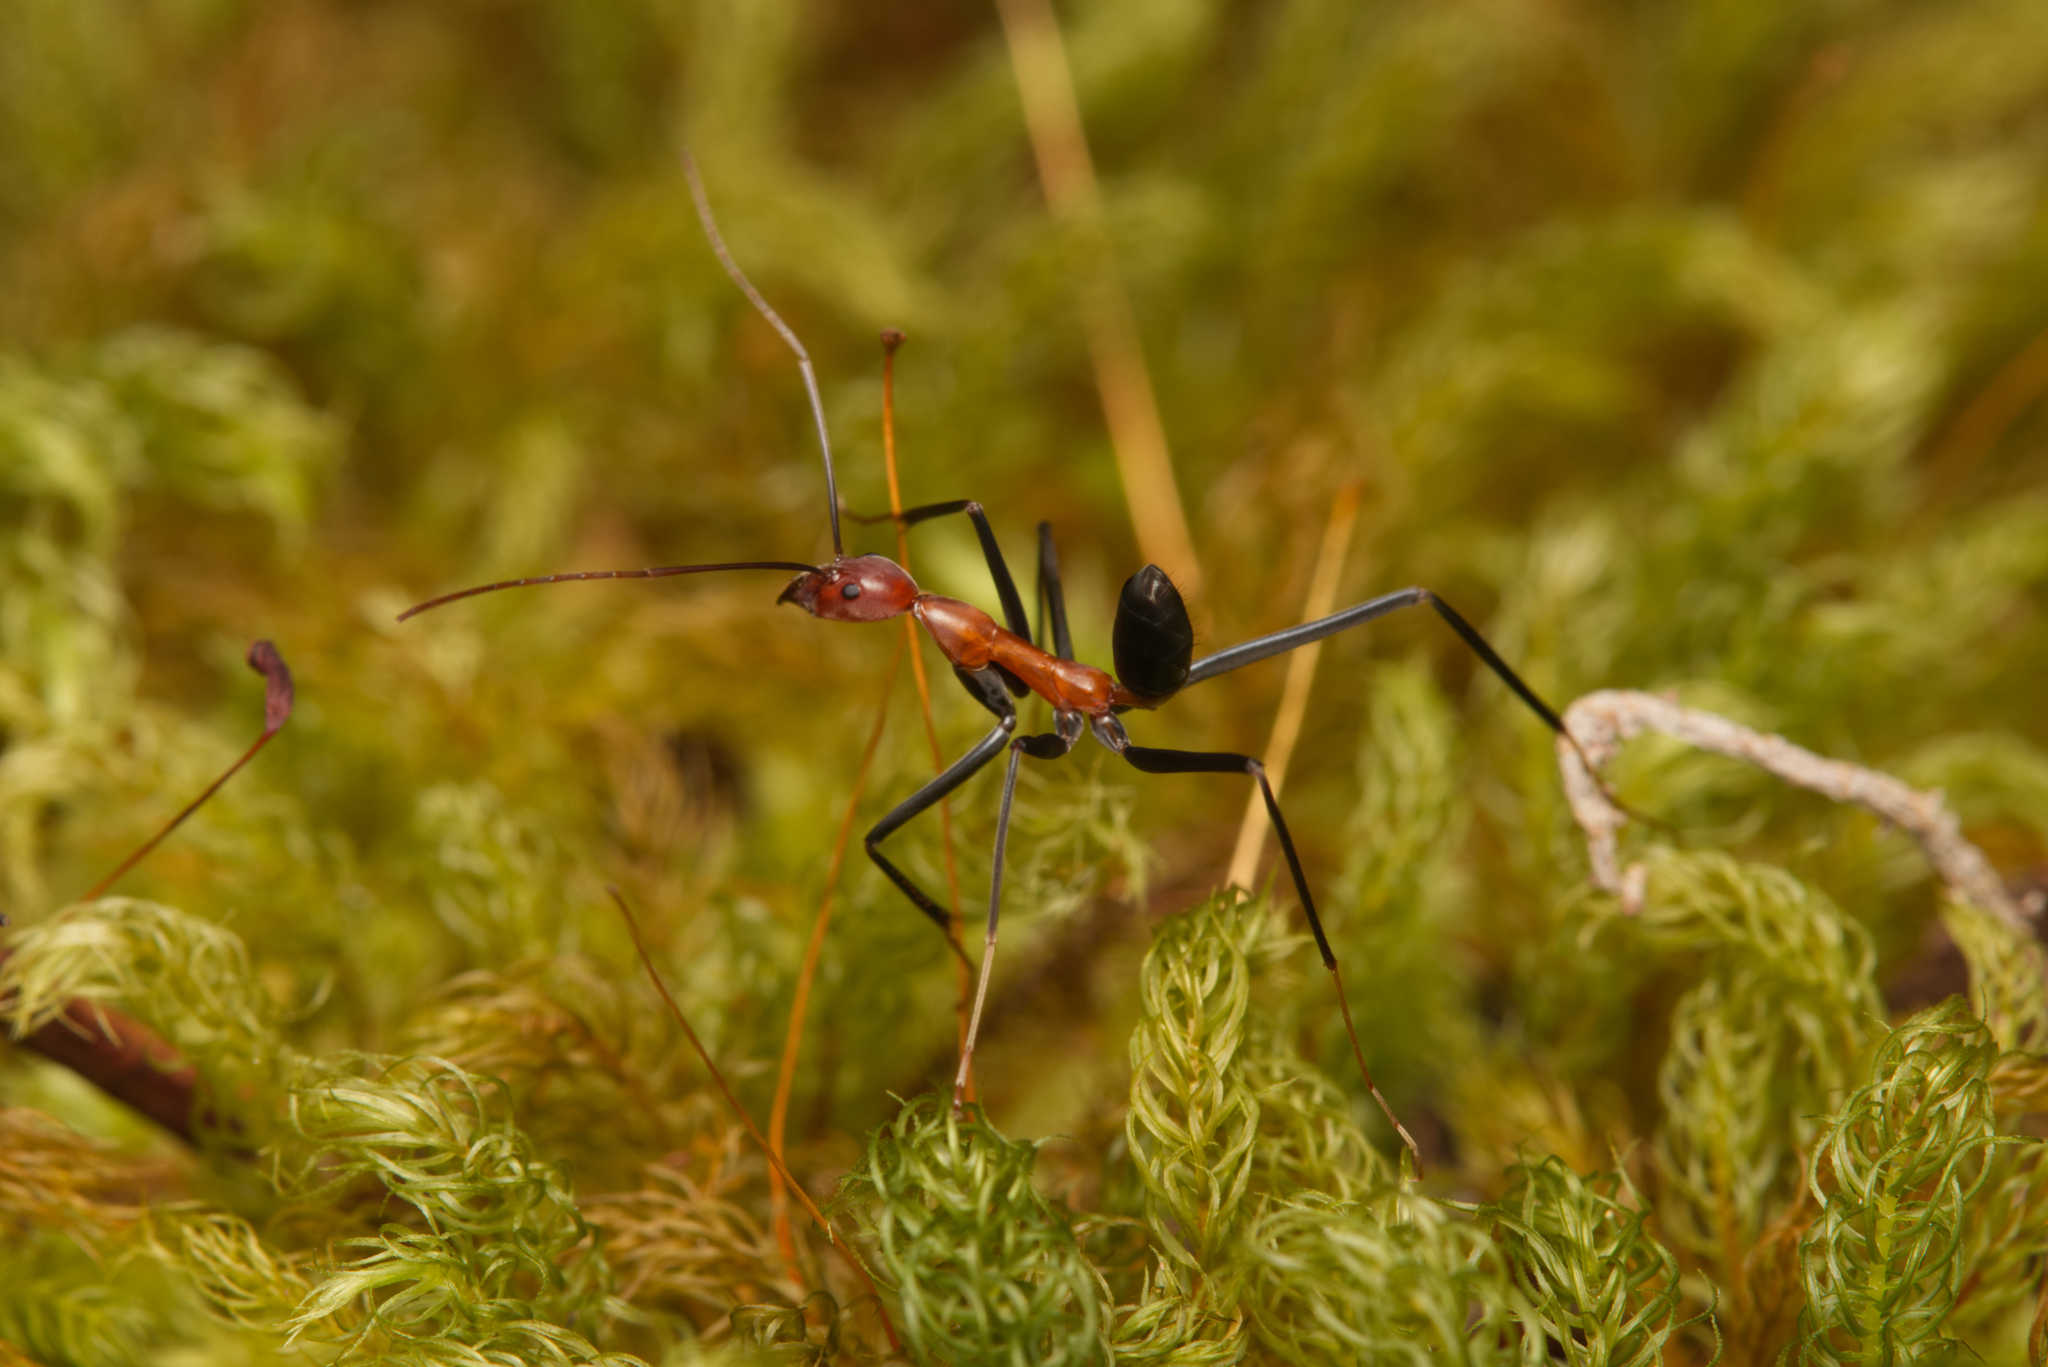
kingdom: Animalia
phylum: Arthropoda
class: Insecta
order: Hymenoptera
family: Formicidae
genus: Leptomyrmex
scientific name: Leptomyrmex rufithorax
